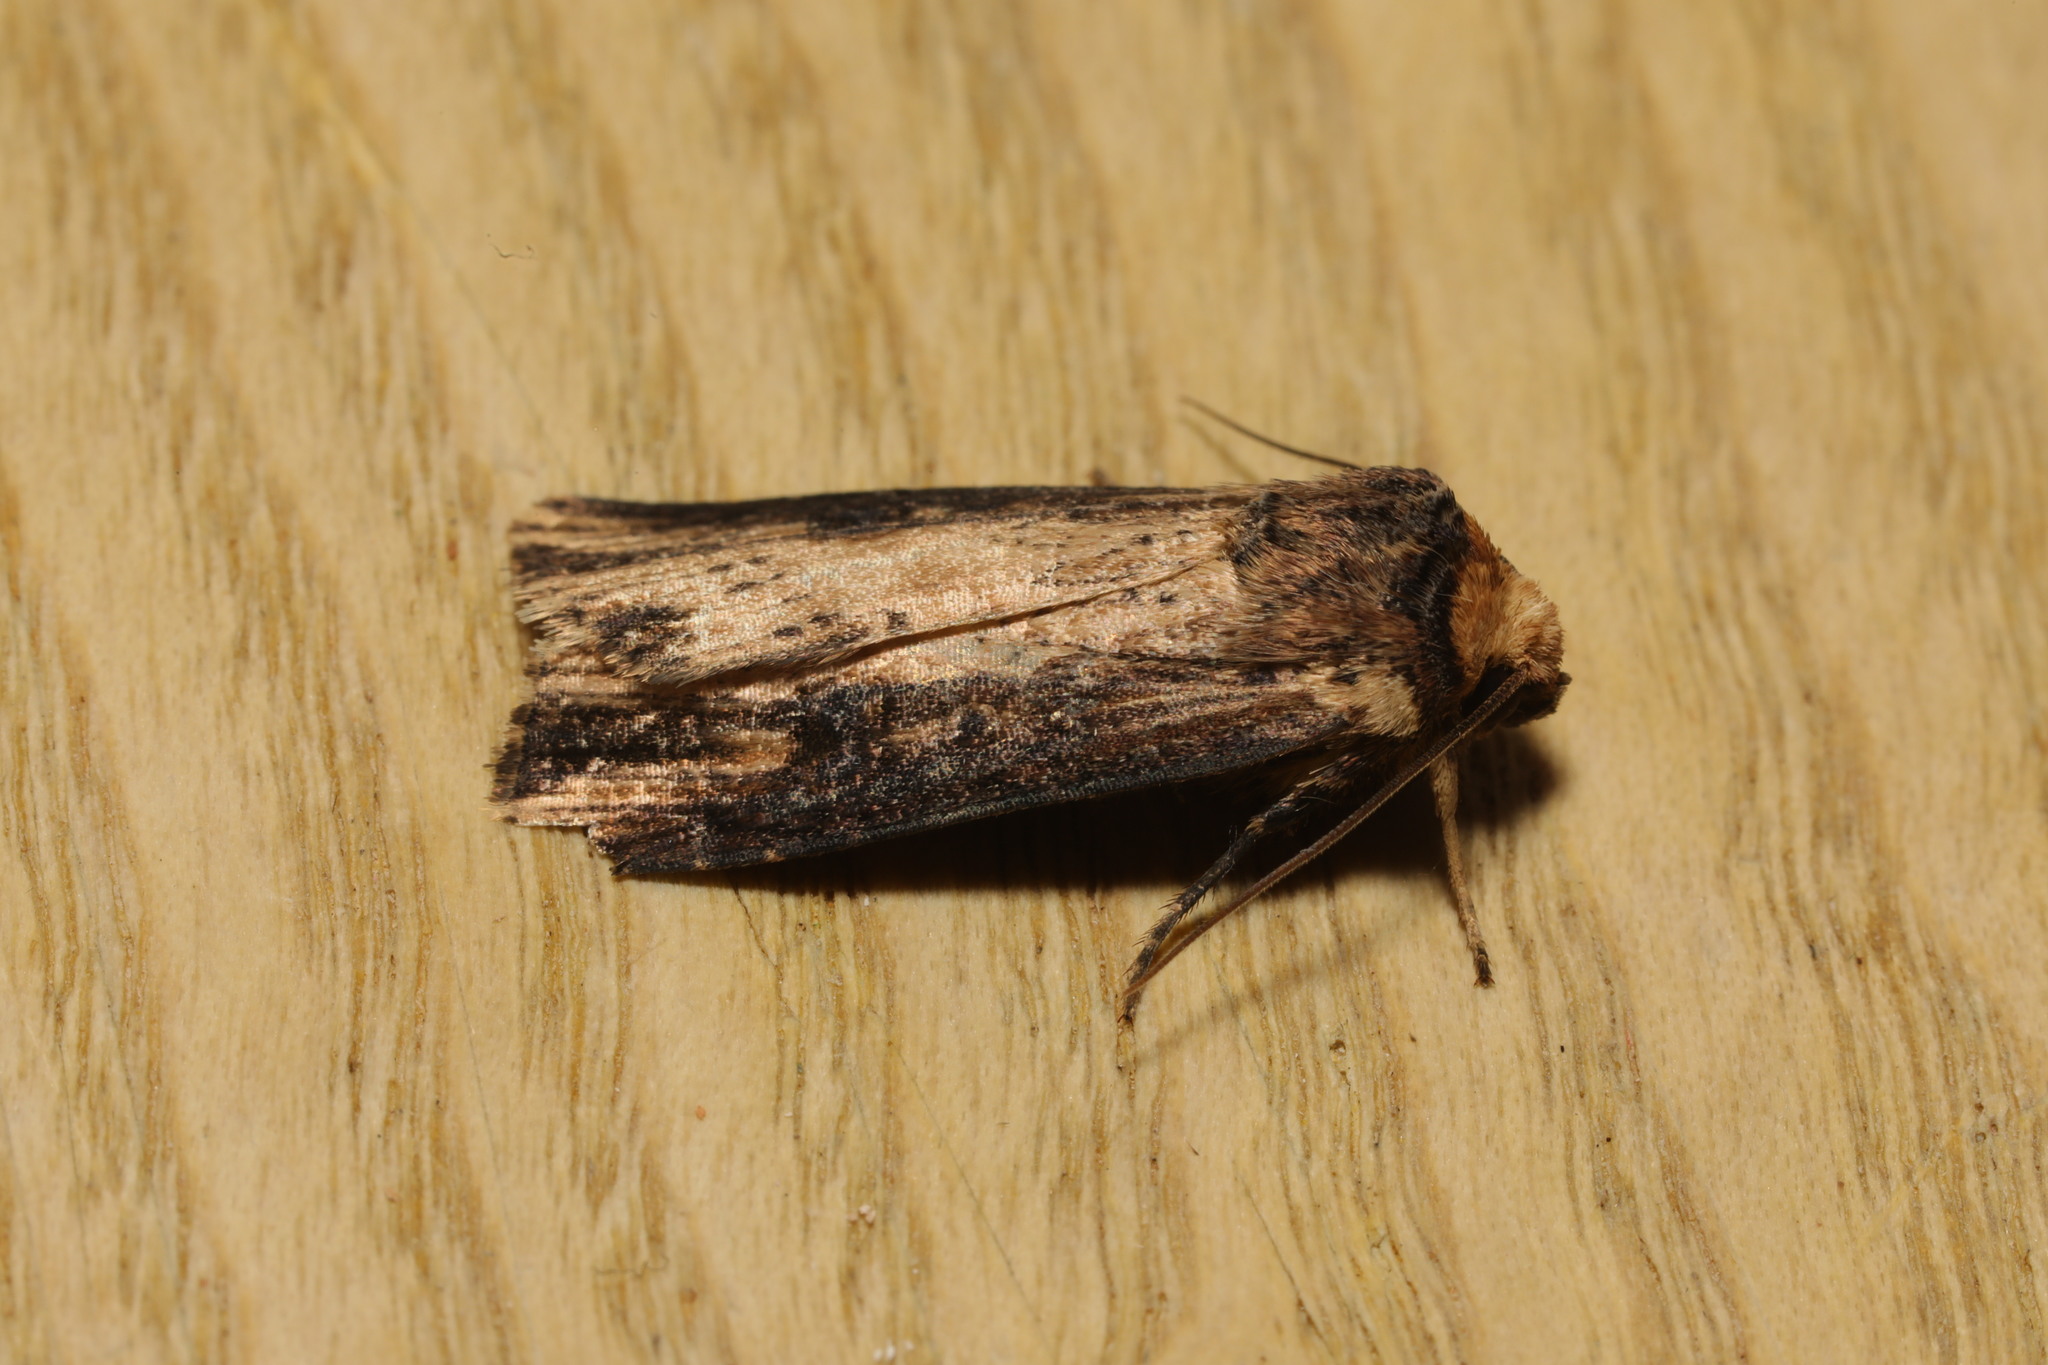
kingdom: Animalia
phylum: Arthropoda
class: Insecta
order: Lepidoptera
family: Noctuidae
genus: Axylia
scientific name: Axylia putris
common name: Flame
